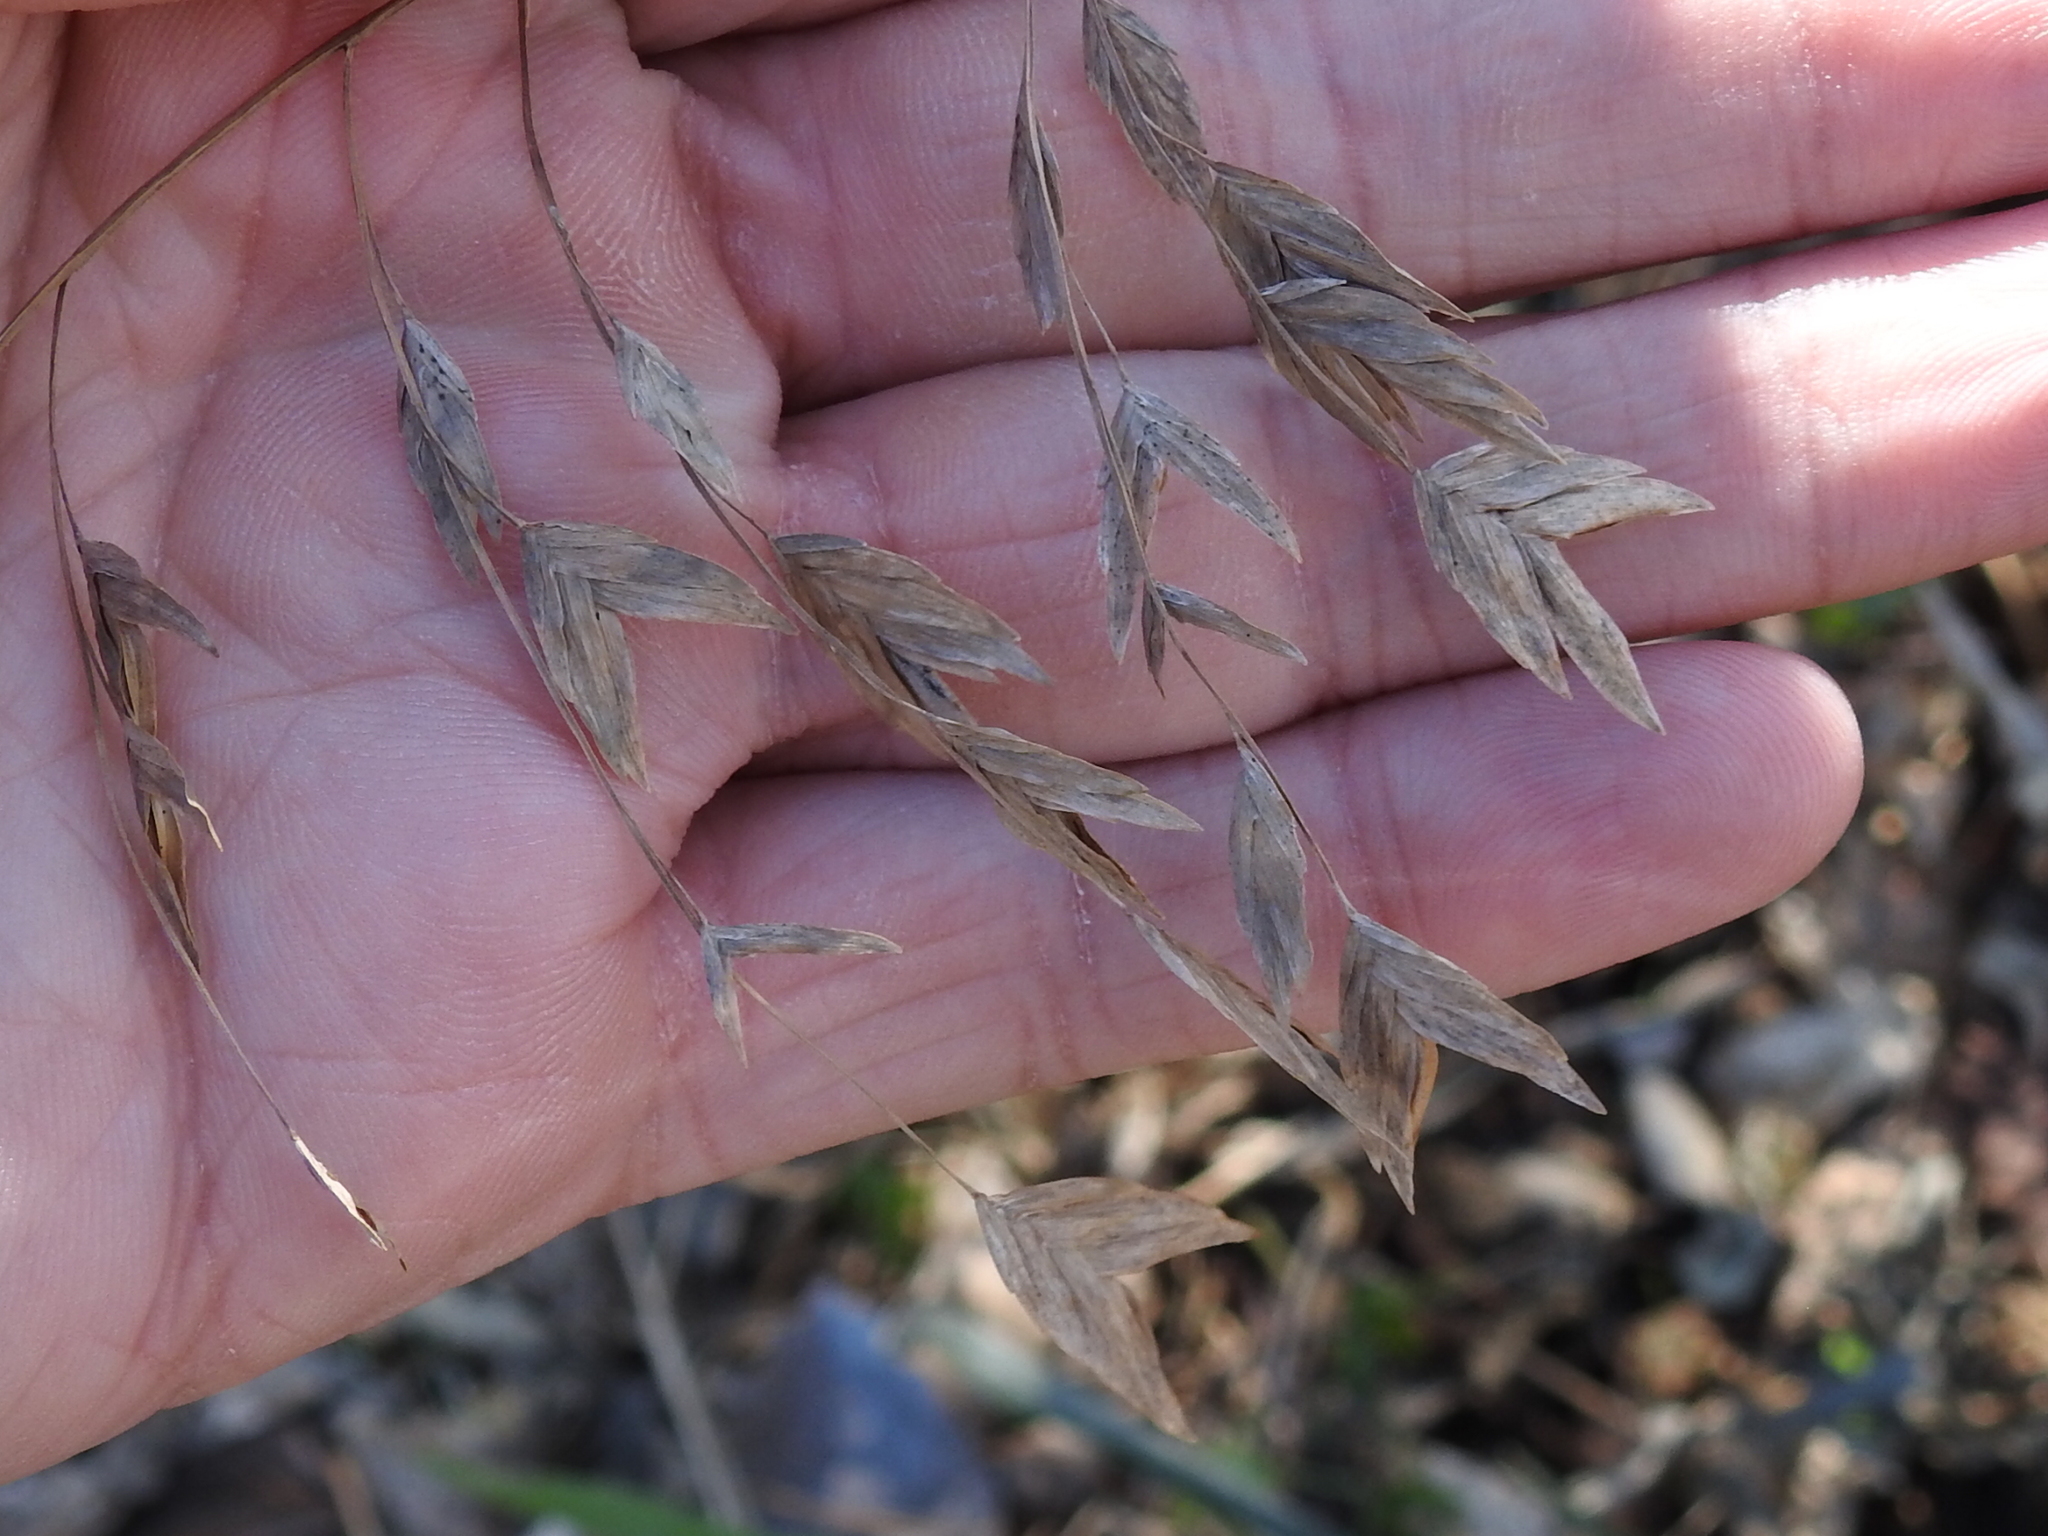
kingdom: Plantae
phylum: Tracheophyta
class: Liliopsida
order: Poales
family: Poaceae
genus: Chasmanthium
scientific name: Chasmanthium latifolium
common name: Broad-leaved chasmanthium
